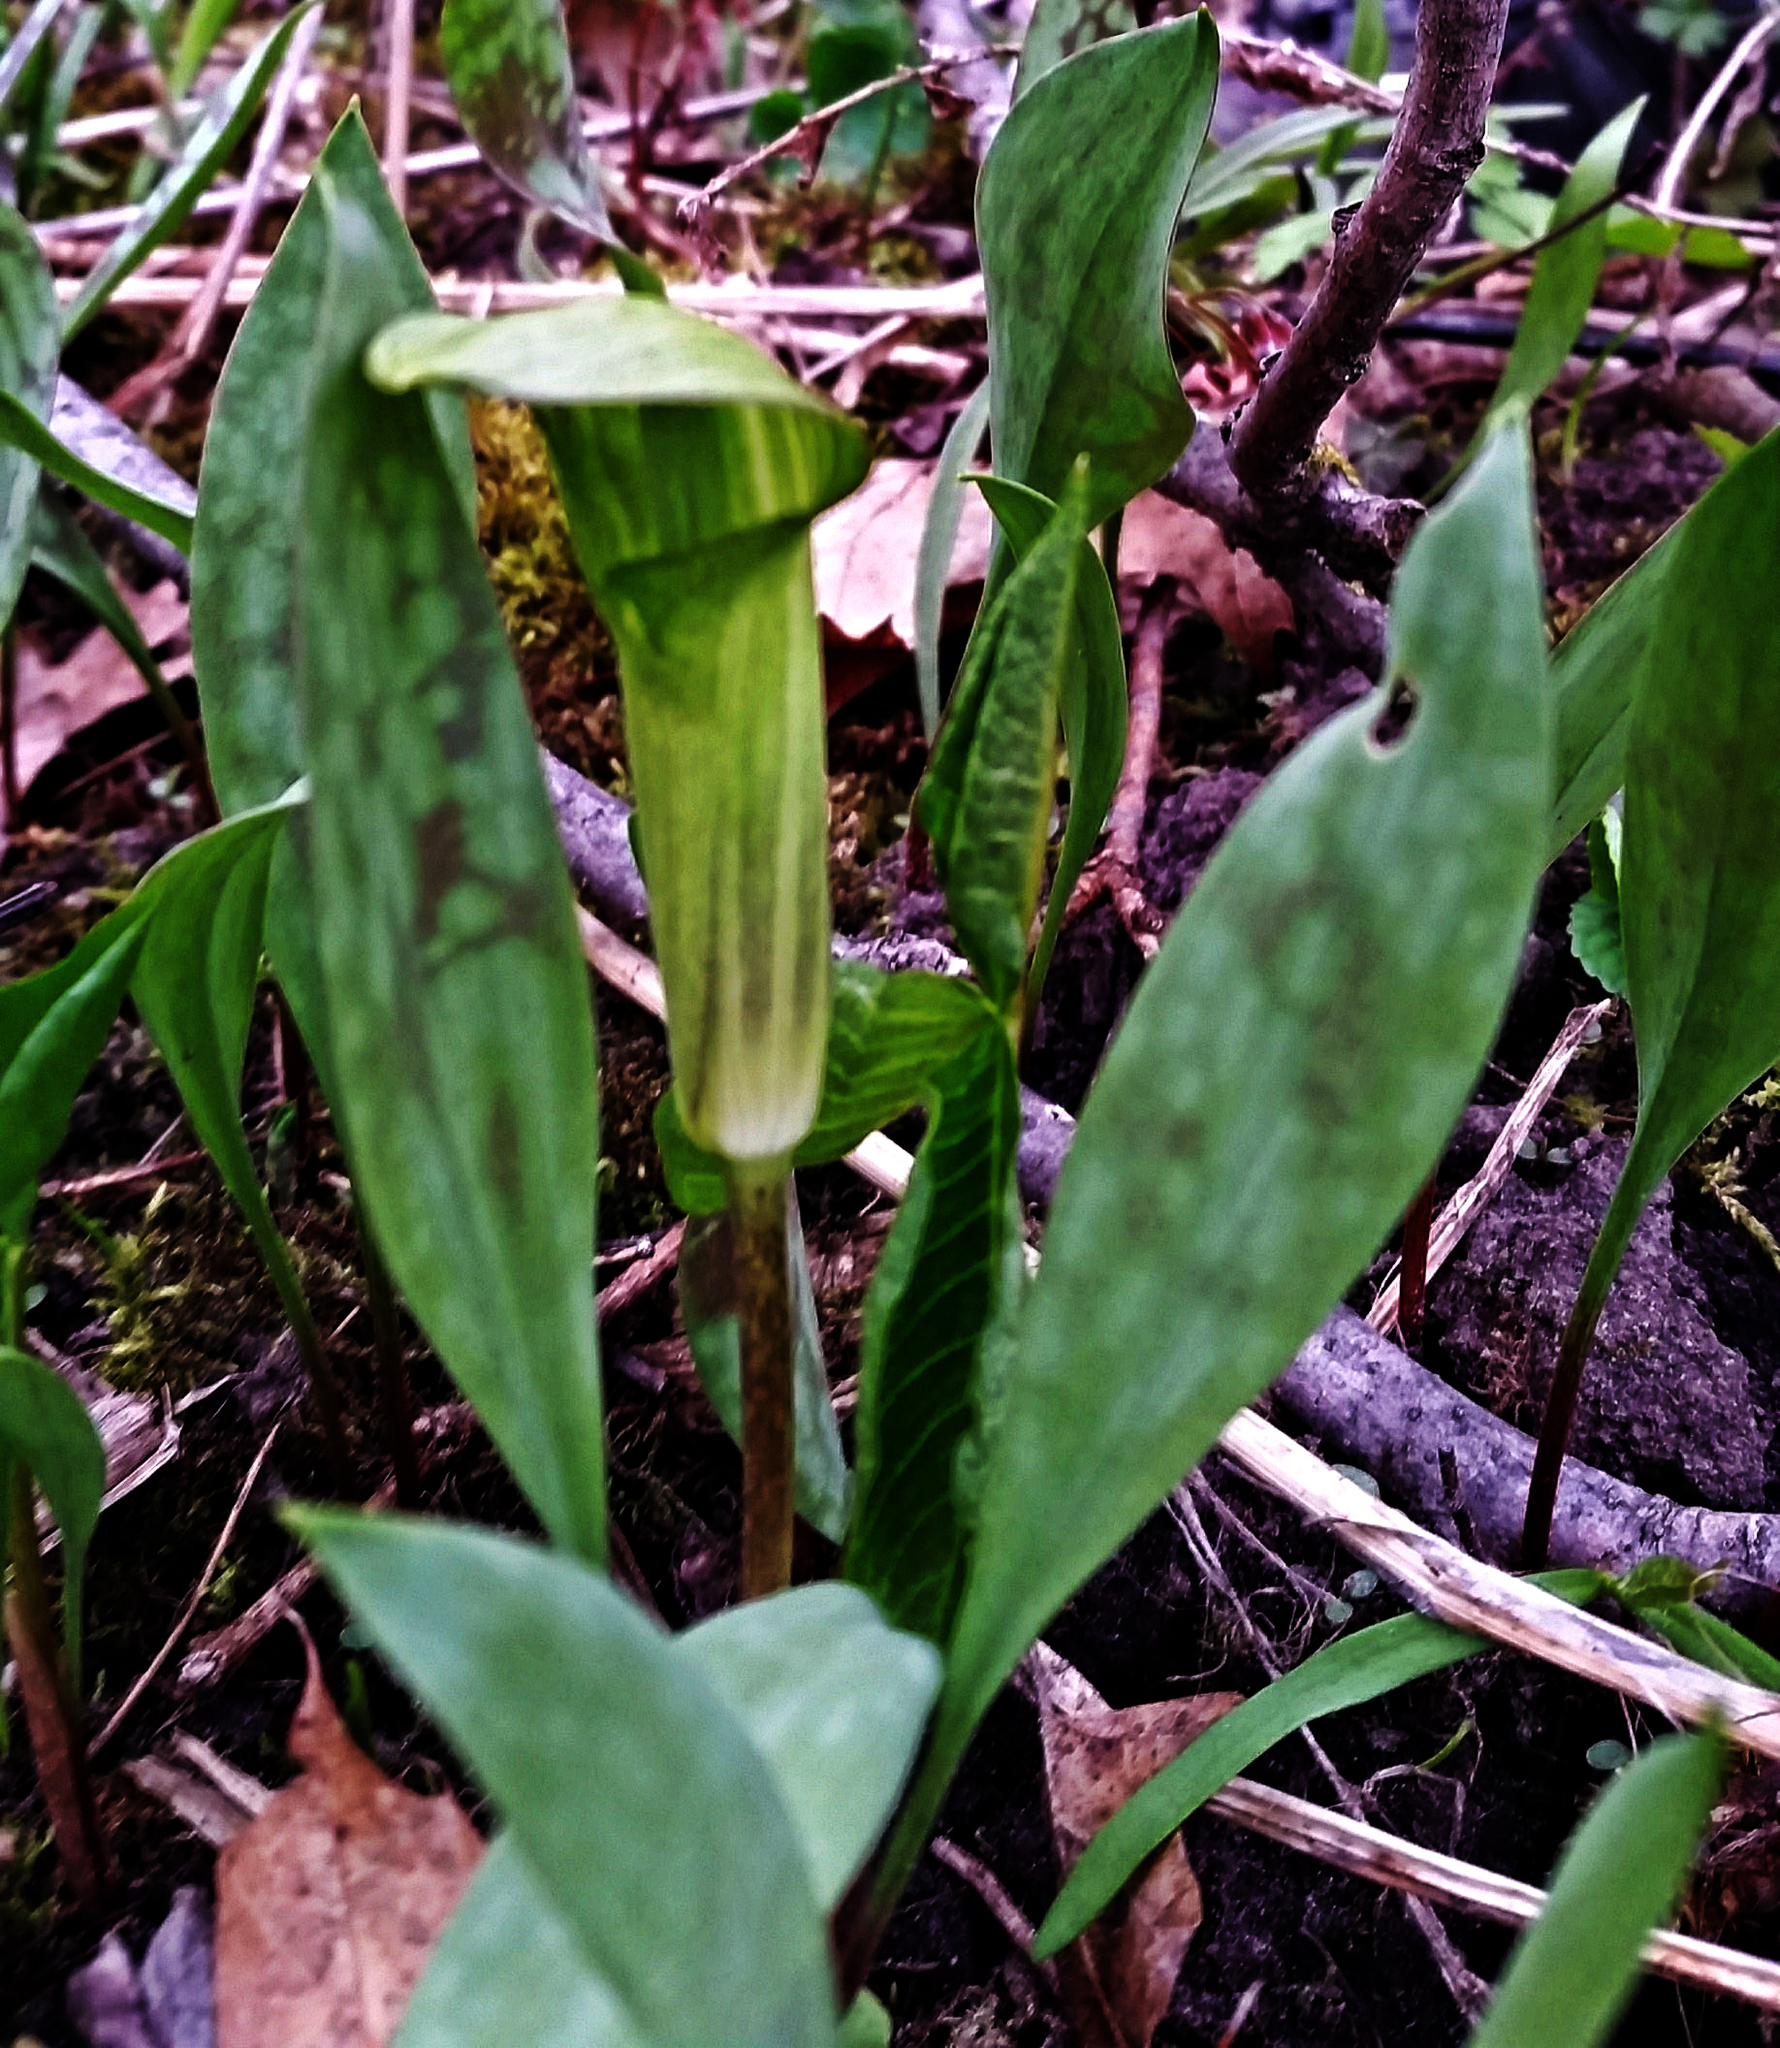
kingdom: Plantae
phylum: Tracheophyta
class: Liliopsida
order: Alismatales
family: Araceae
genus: Arisaema
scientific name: Arisaema triphyllum
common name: Jack-in-the-pulpit
